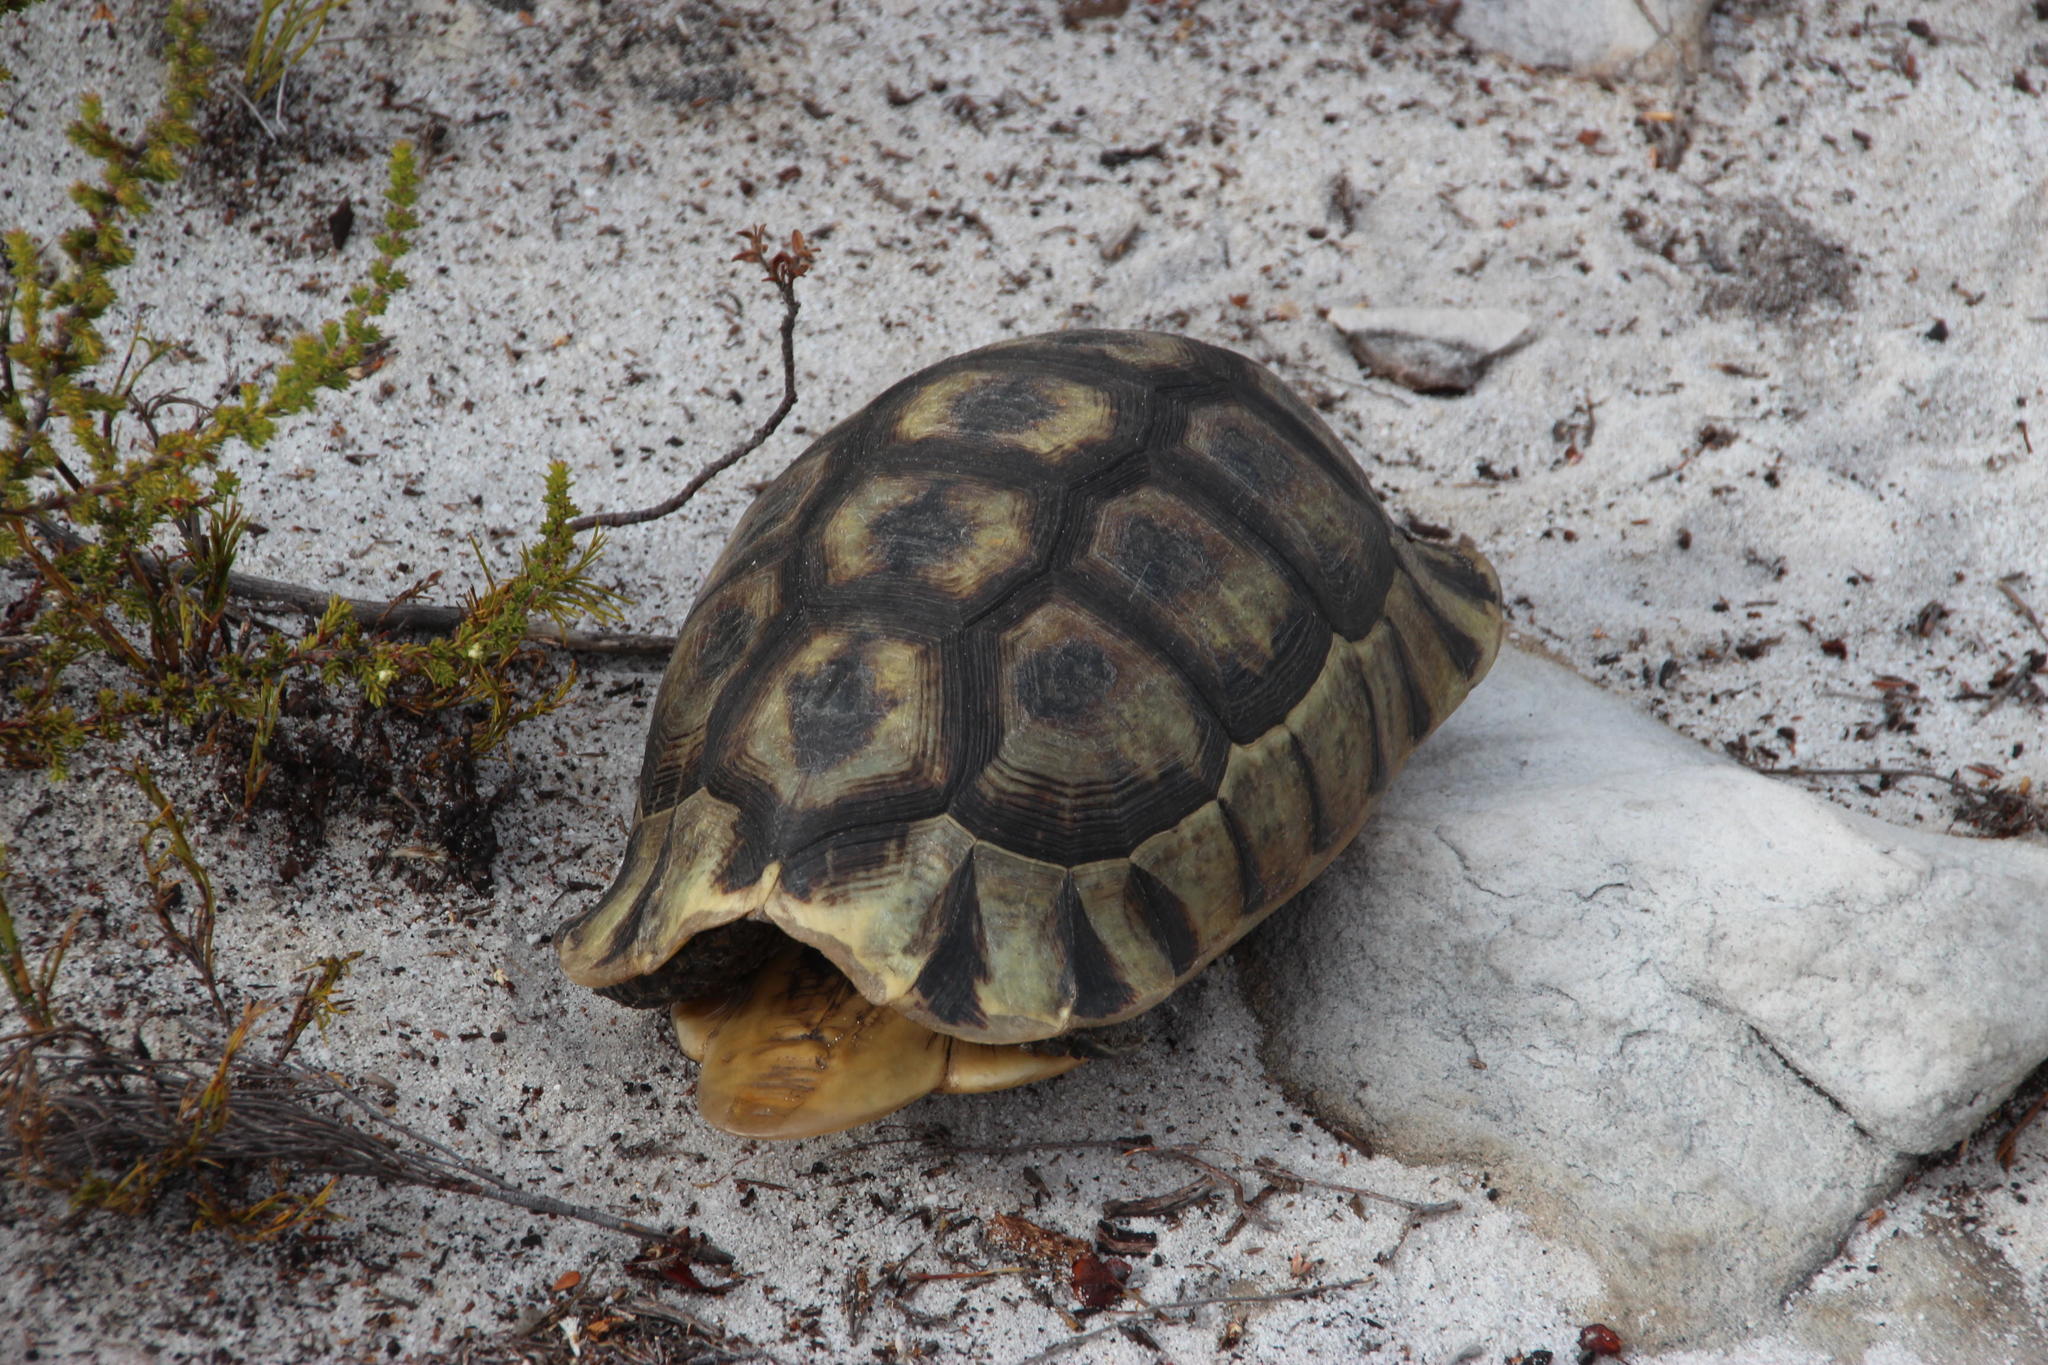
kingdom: Animalia
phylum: Chordata
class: Testudines
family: Testudinidae
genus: Chersina
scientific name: Chersina angulata
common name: South african bowsprit tortoise
